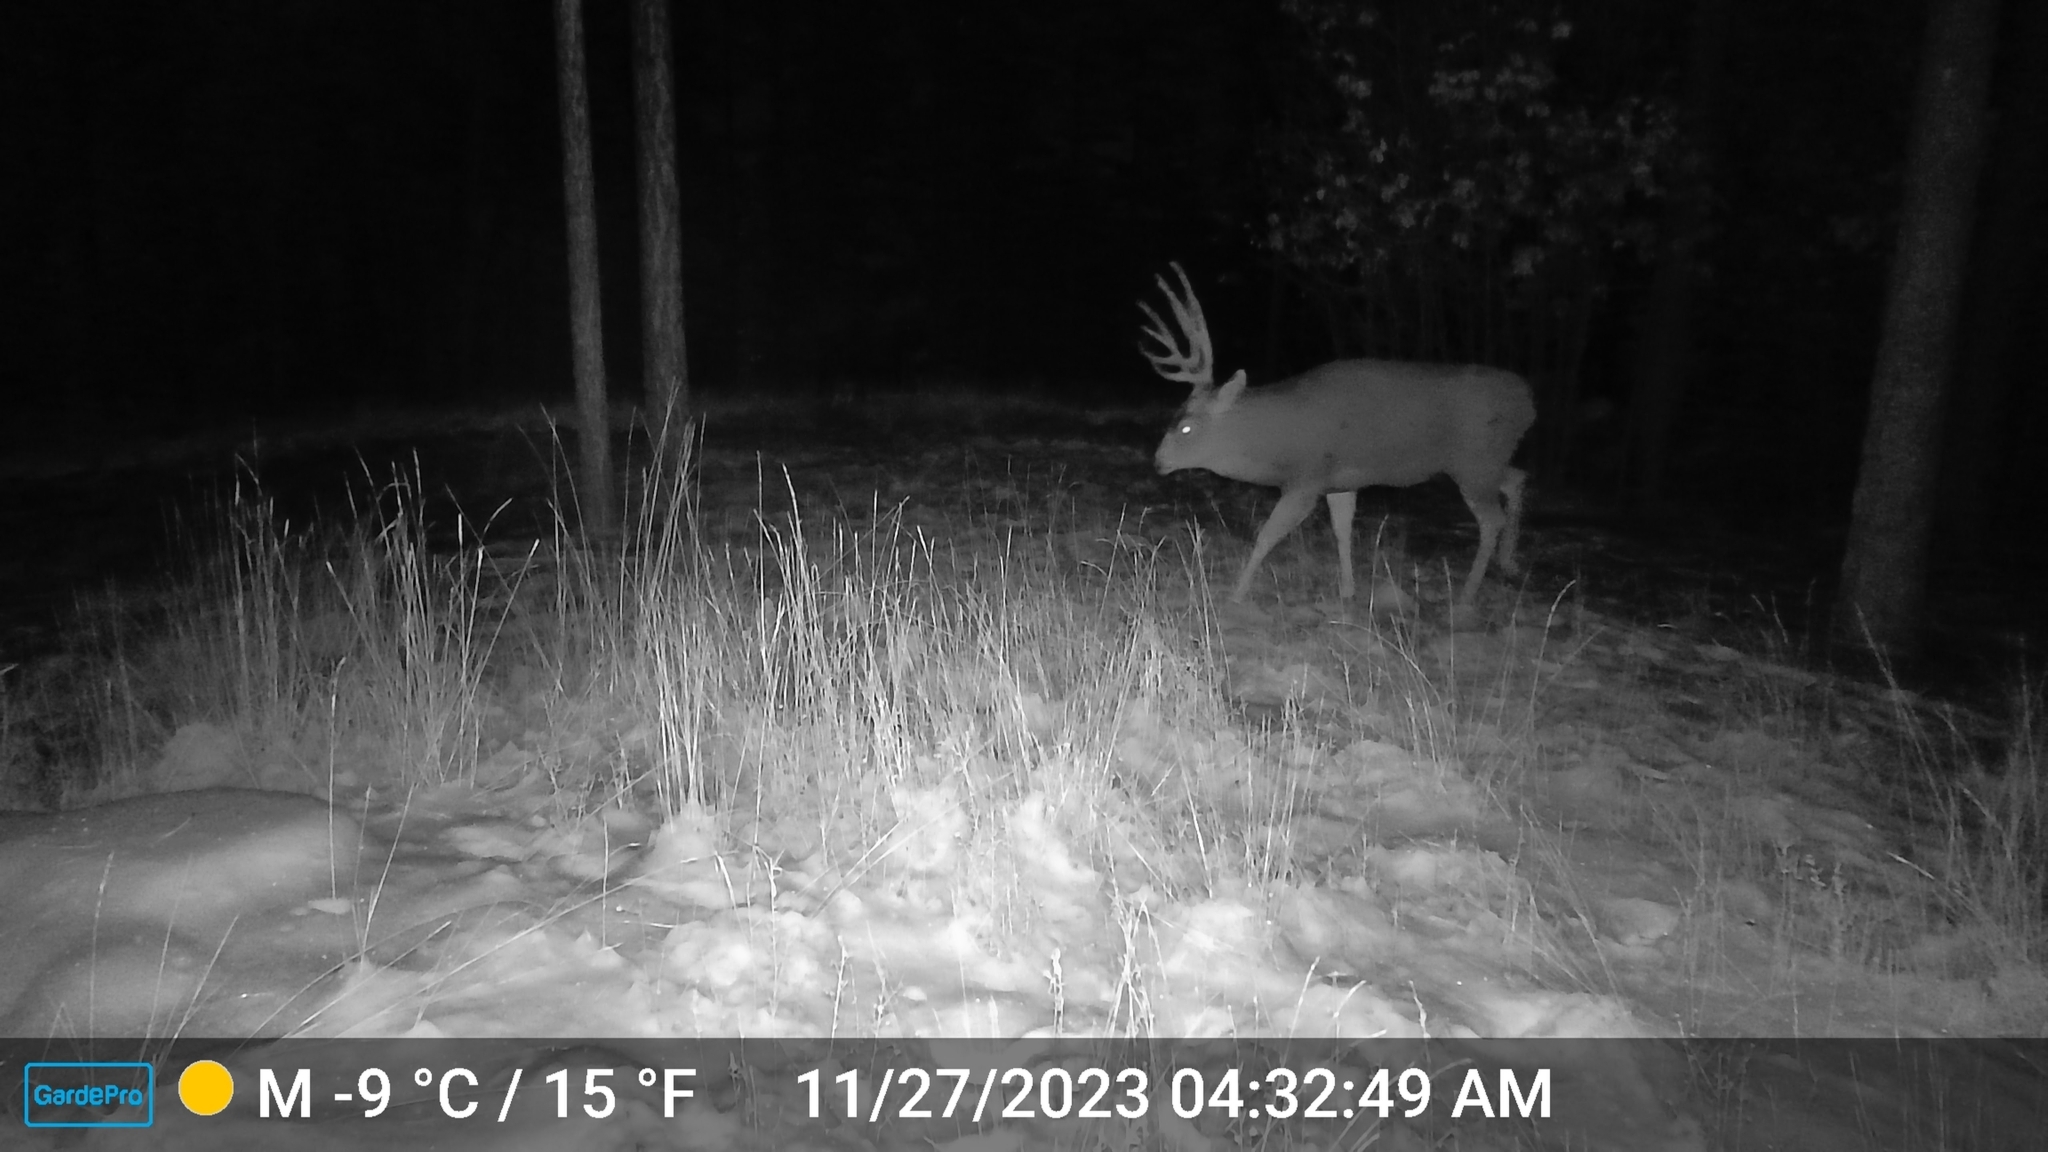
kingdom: Animalia
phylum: Chordata
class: Mammalia
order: Artiodactyla
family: Cervidae
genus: Odocoileus
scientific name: Odocoileus hemionus
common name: Mule deer
